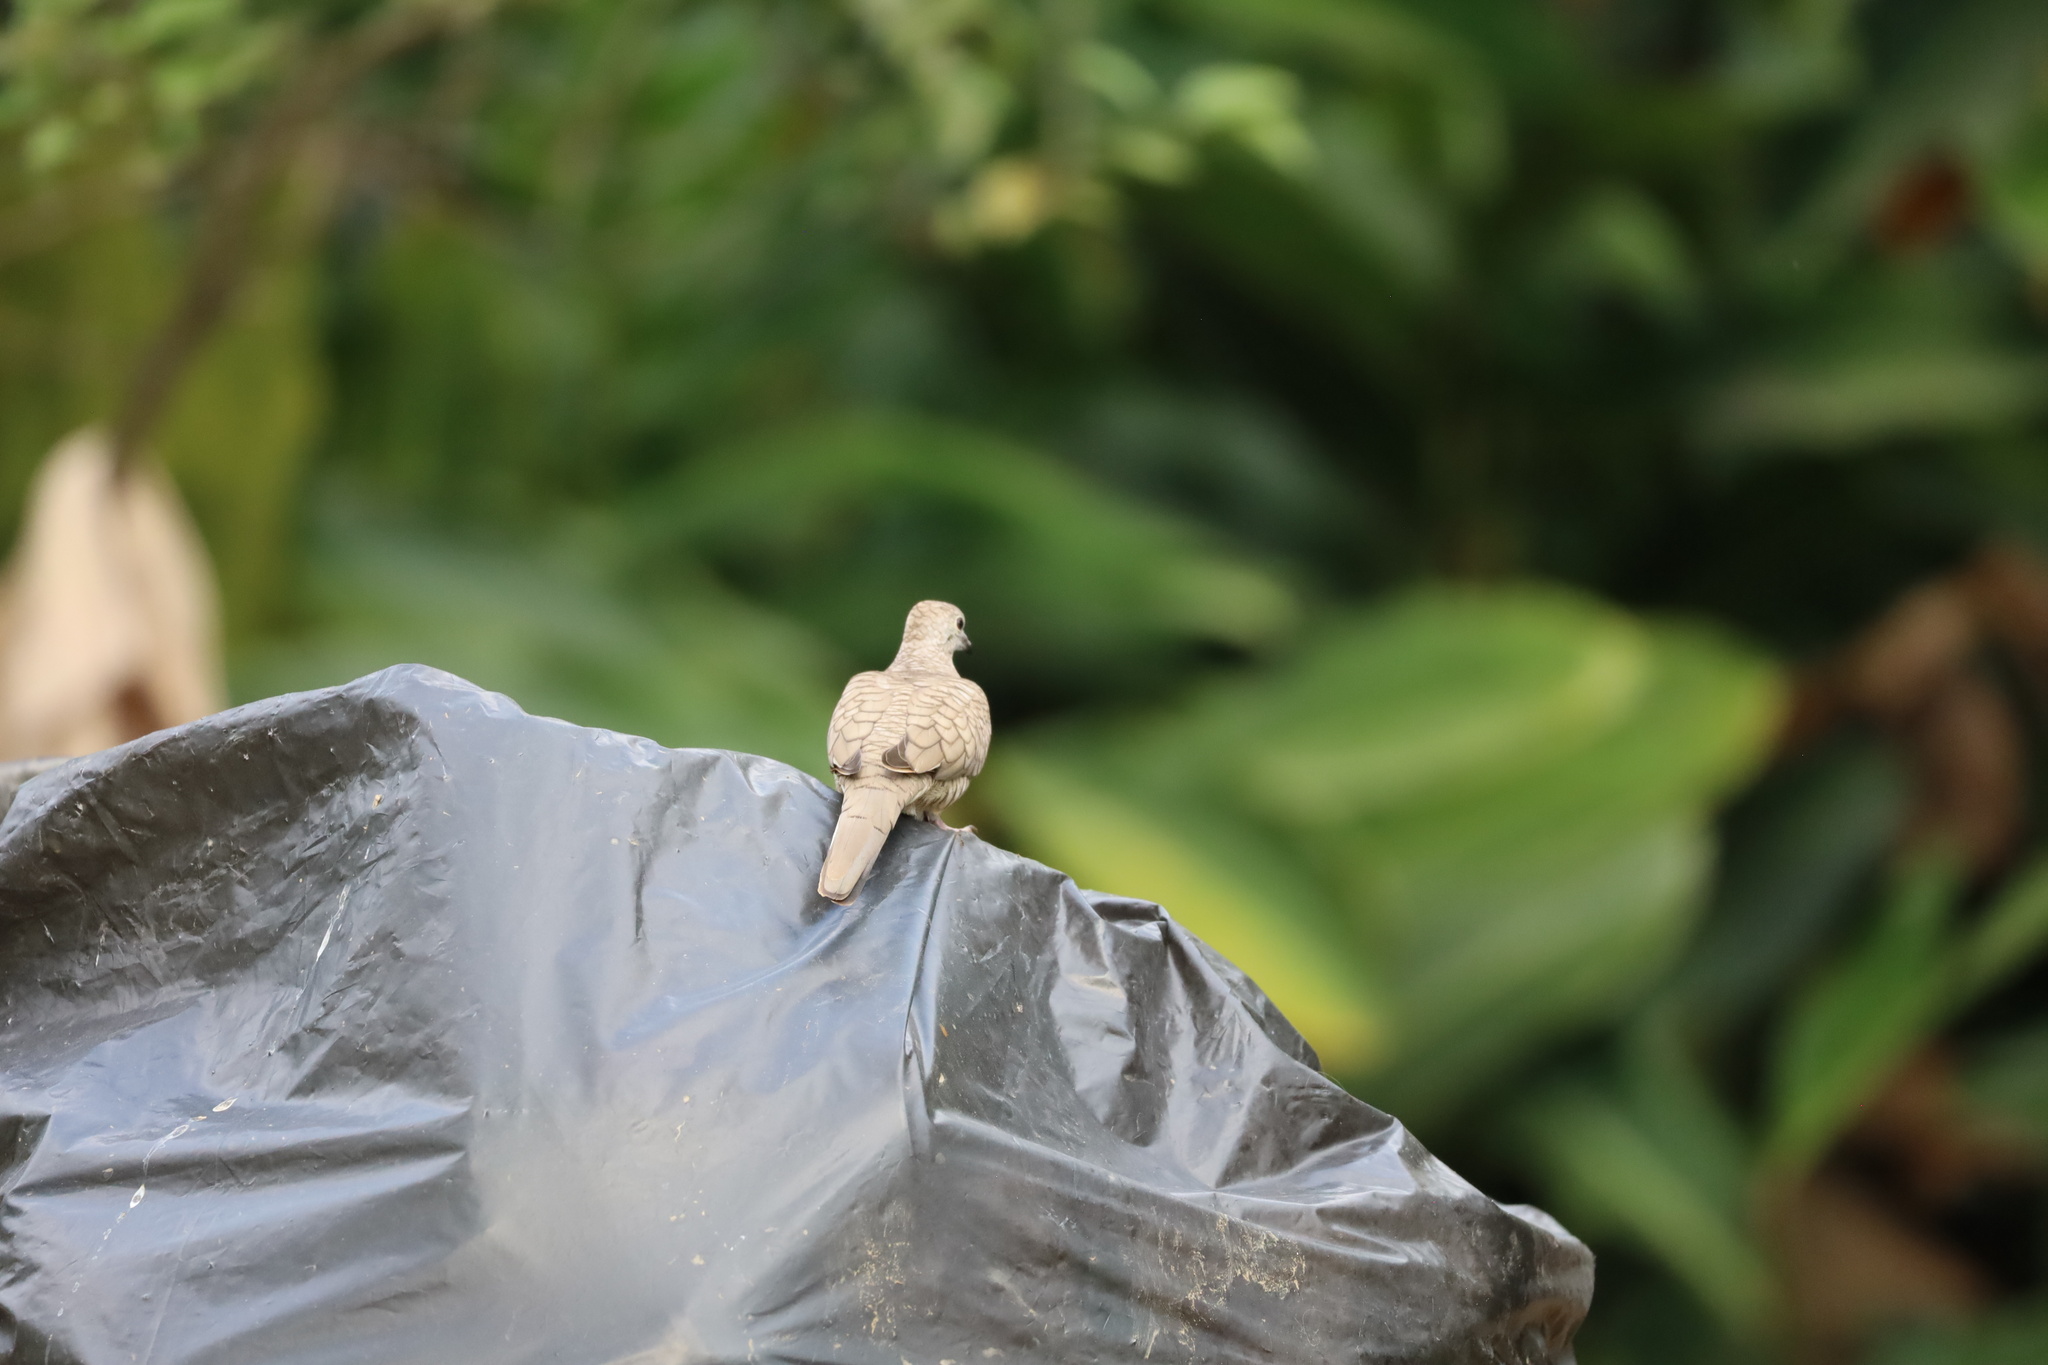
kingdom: Animalia
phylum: Chordata
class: Aves
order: Columbiformes
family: Columbidae
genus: Columbina
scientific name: Columbina inca
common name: Inca dove
